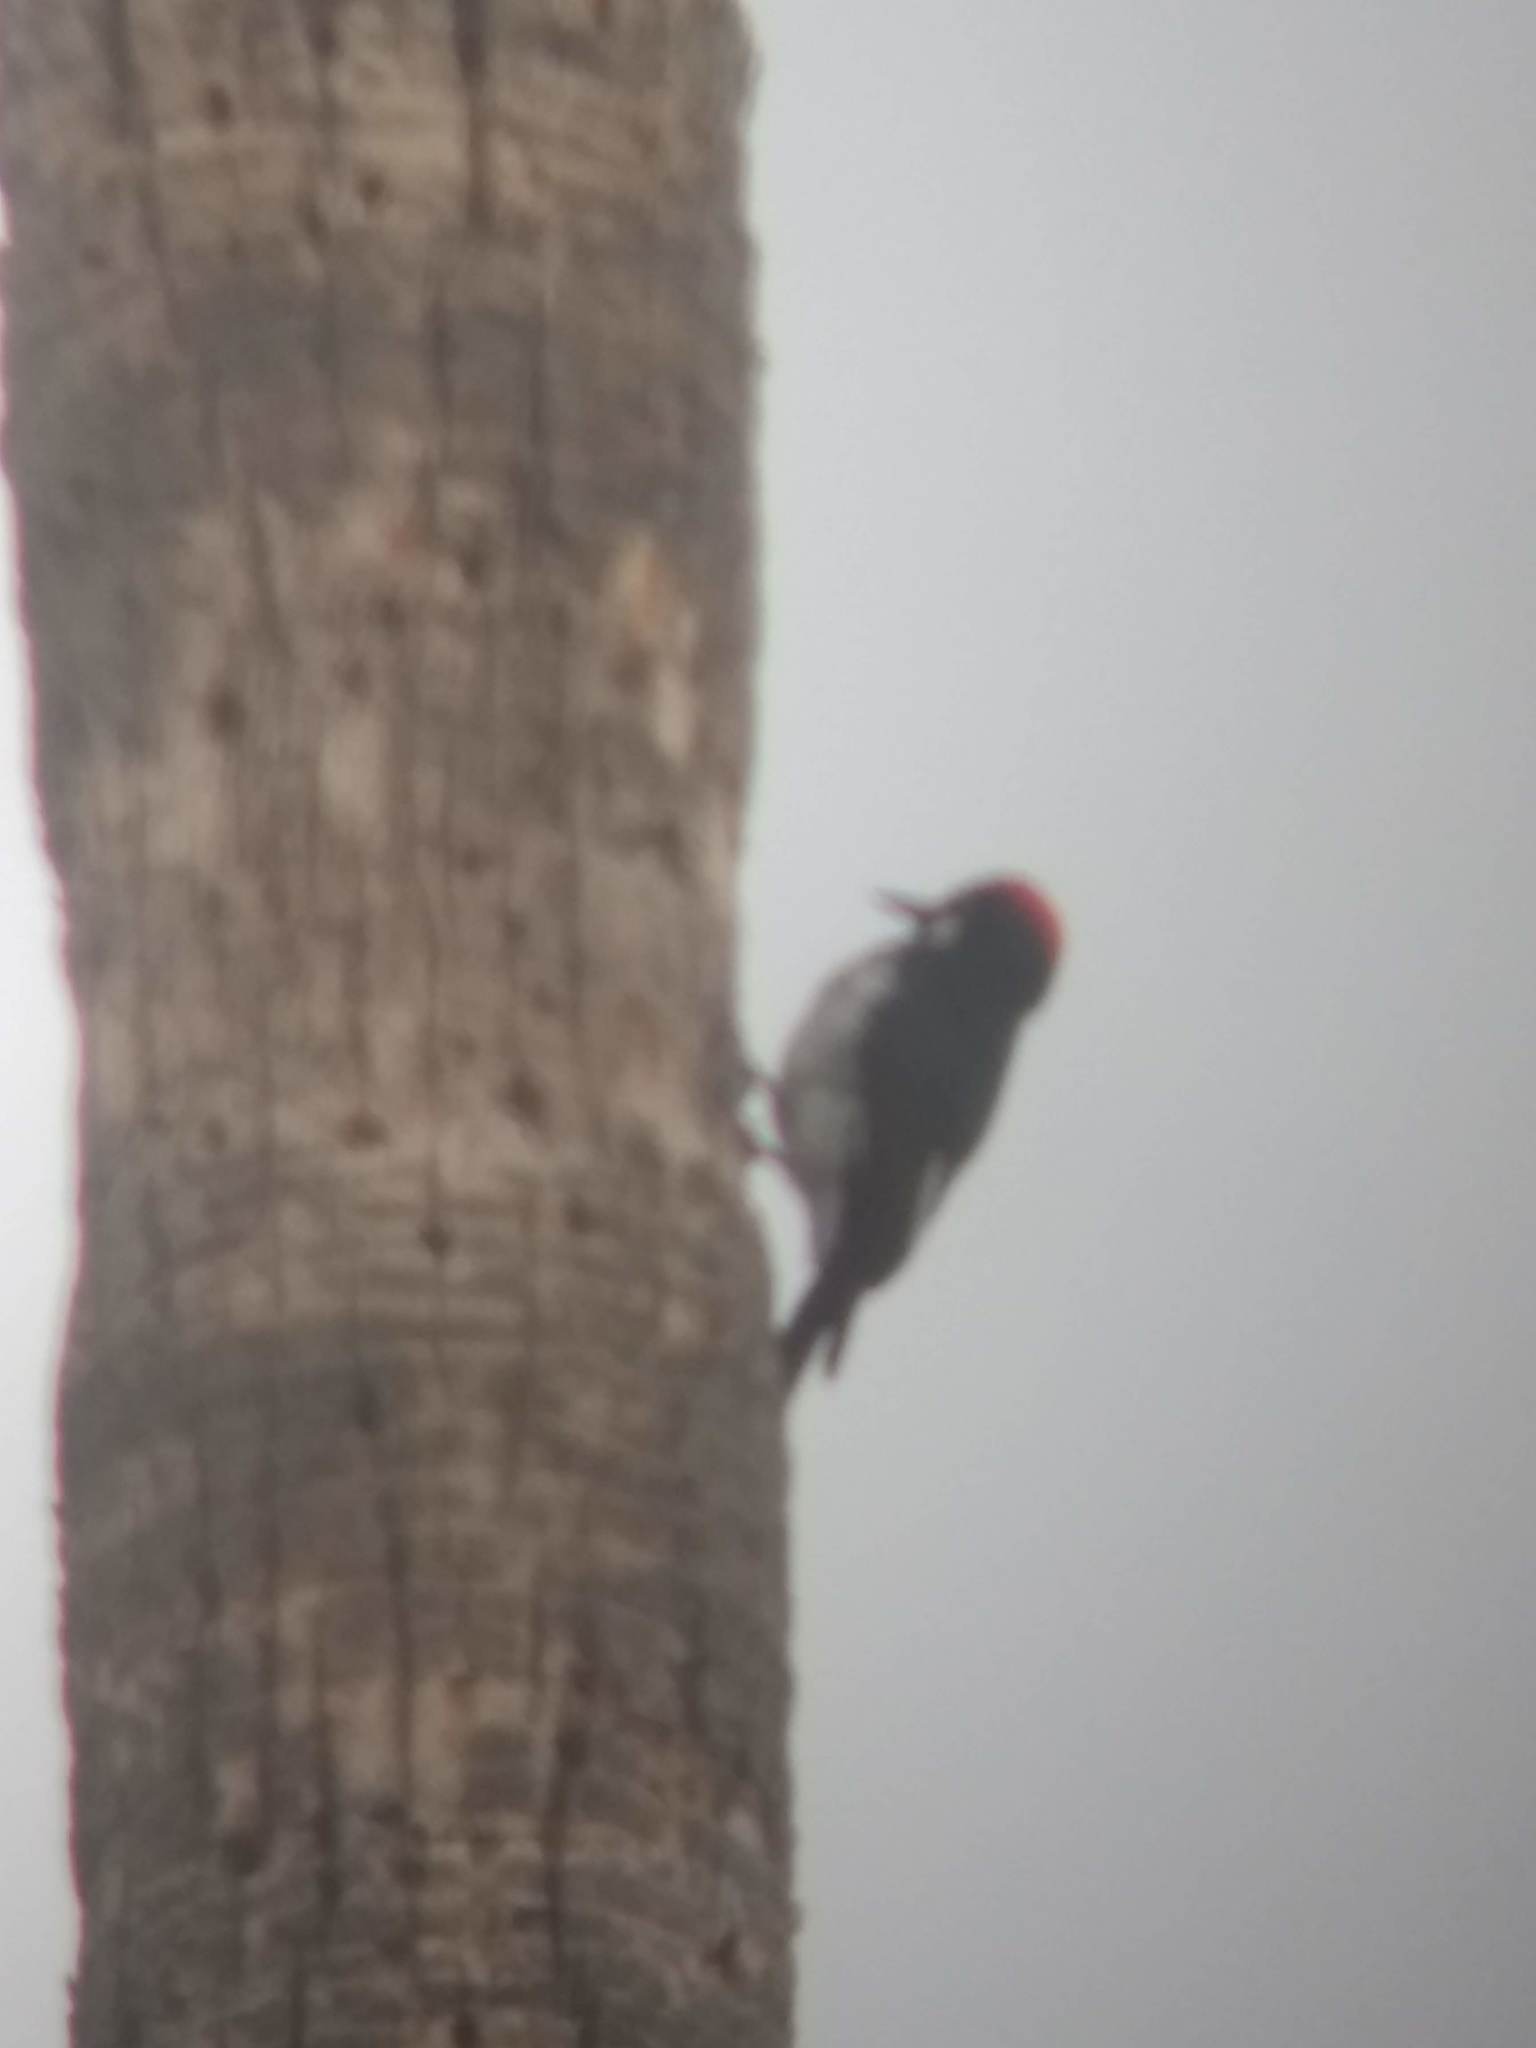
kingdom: Animalia
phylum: Chordata
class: Aves
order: Piciformes
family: Picidae
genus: Melanerpes
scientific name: Melanerpes formicivorus
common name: Acorn woodpecker
